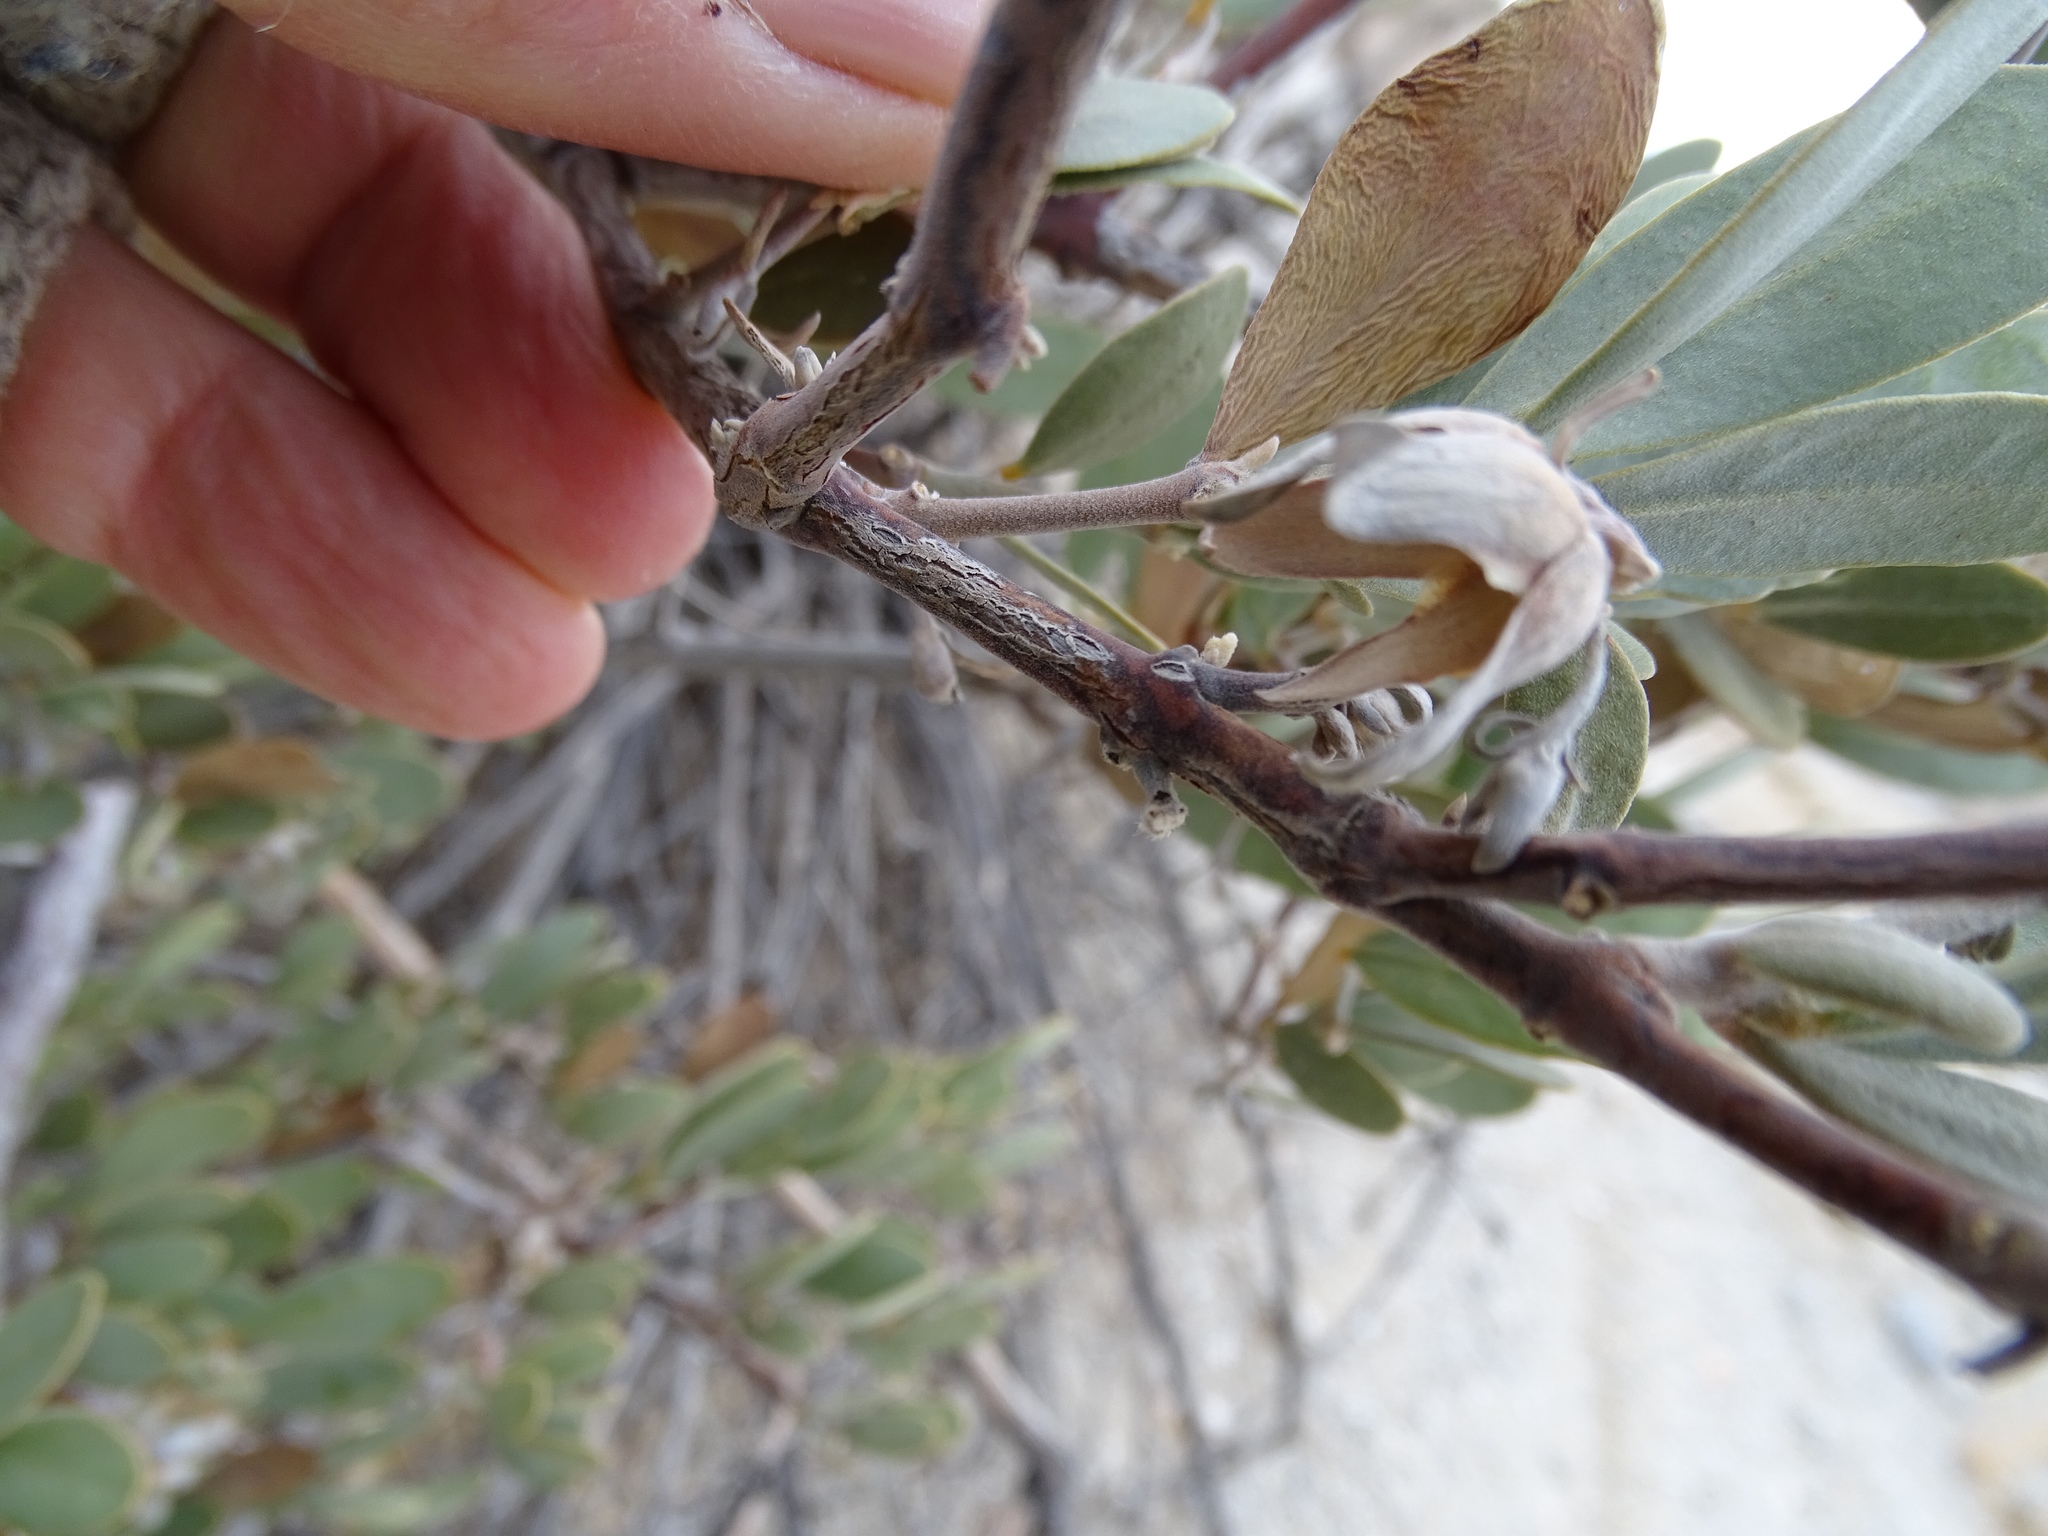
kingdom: Plantae
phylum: Tracheophyta
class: Magnoliopsida
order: Caryophyllales
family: Simmondsiaceae
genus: Simmondsia
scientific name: Simmondsia chinensis
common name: Jojoba
